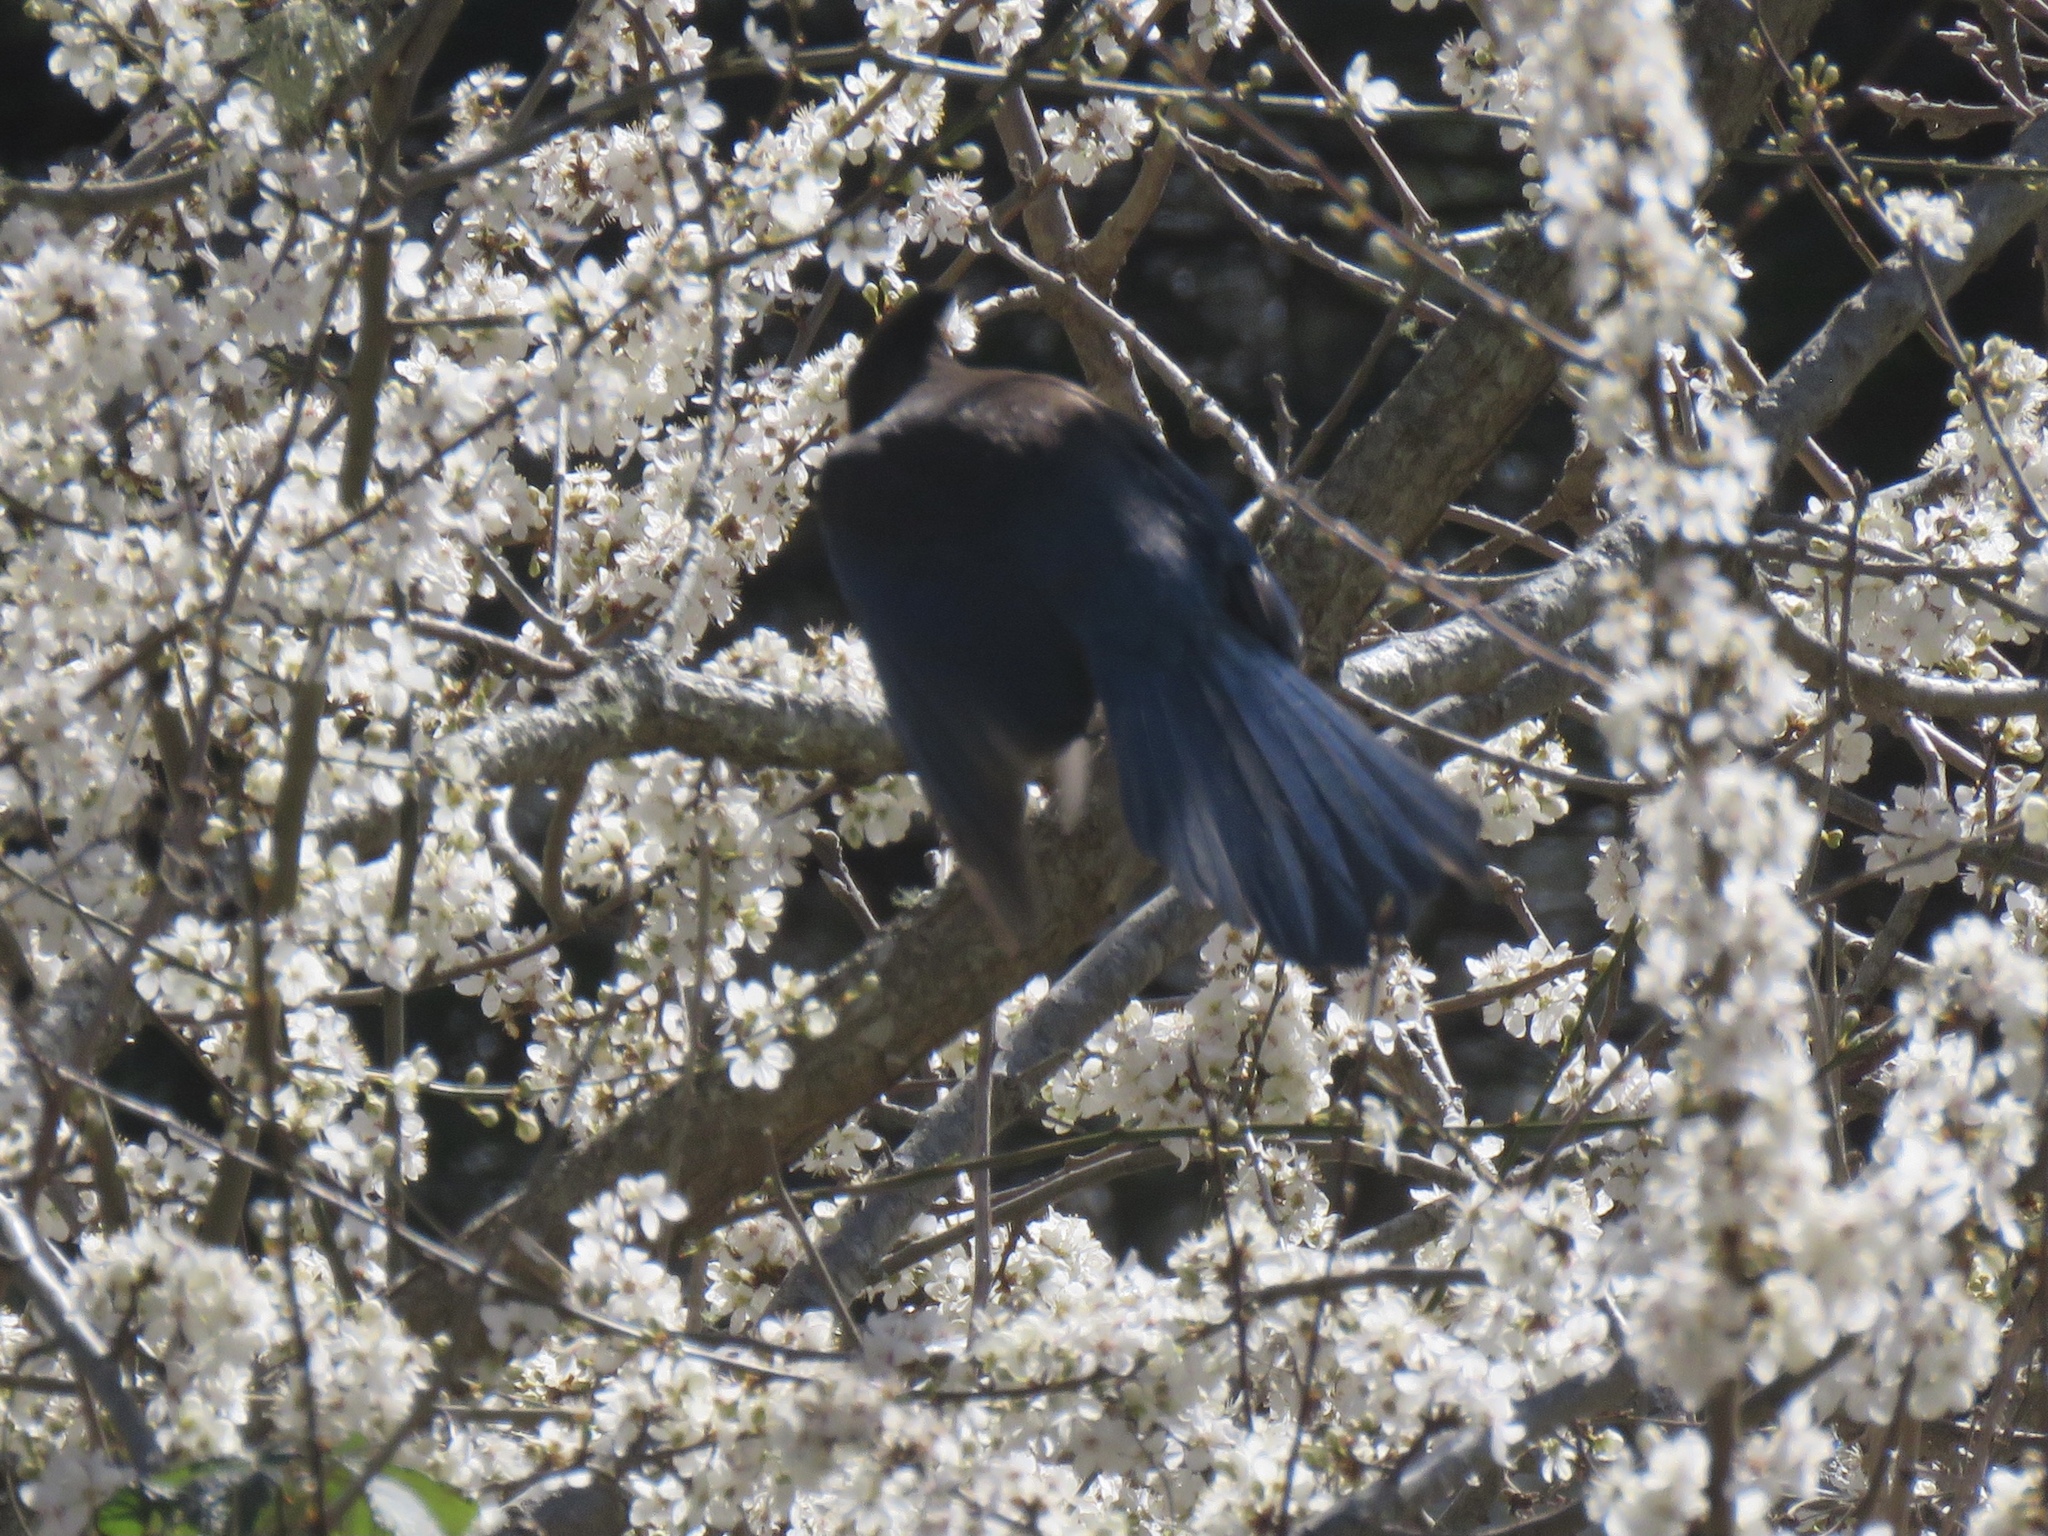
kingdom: Animalia
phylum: Chordata
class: Aves
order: Passeriformes
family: Corvidae
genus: Cyanocitta
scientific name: Cyanocitta stelleri
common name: Steller's jay
